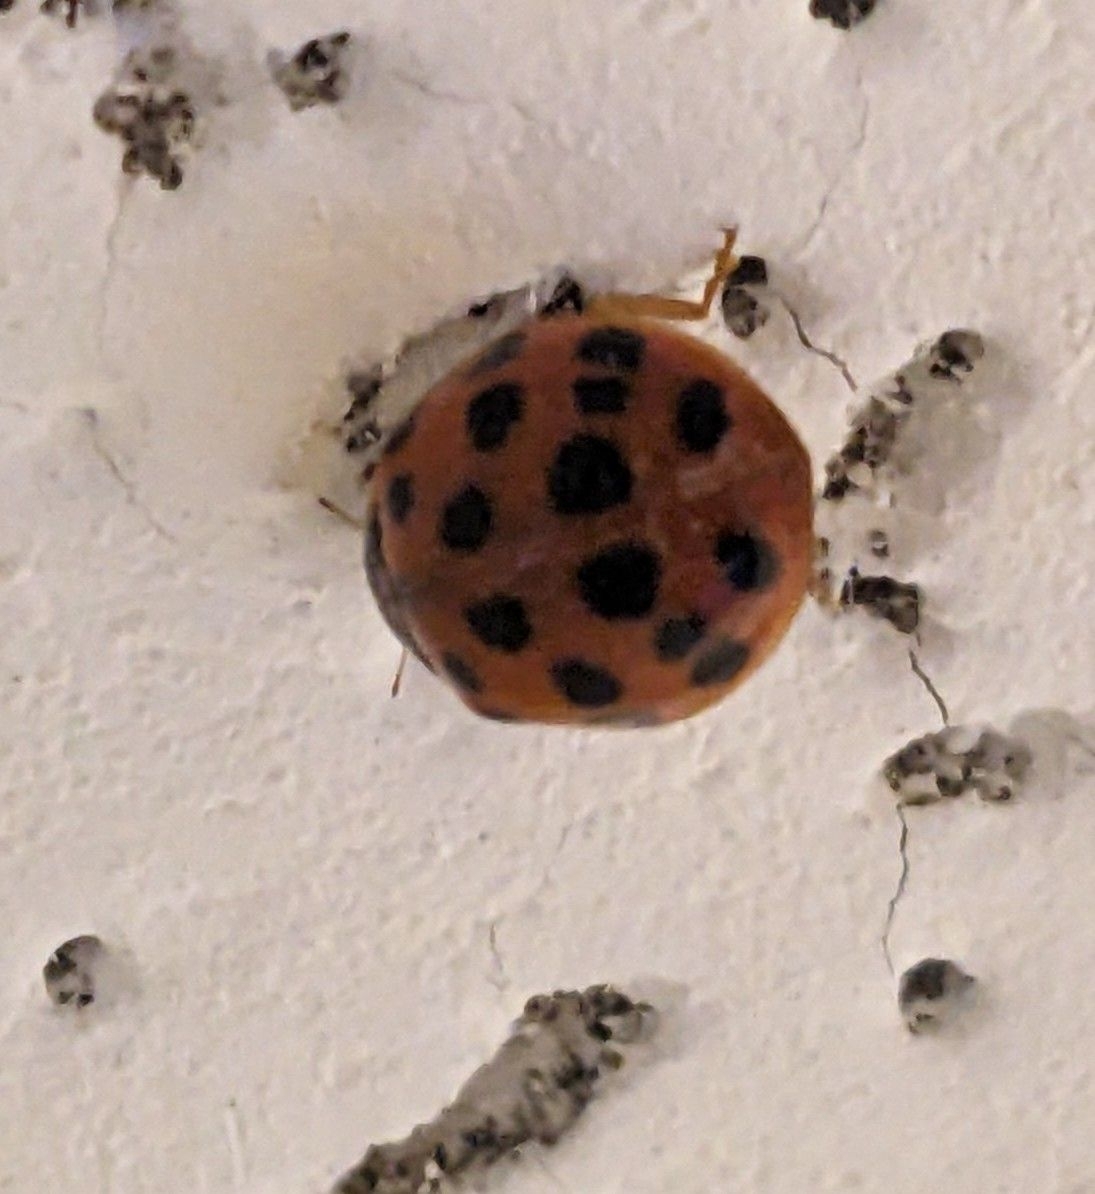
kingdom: Animalia
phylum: Arthropoda
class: Insecta
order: Coleoptera
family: Coccinellidae
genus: Harmonia
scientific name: Harmonia axyridis
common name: Harlequin ladybird
